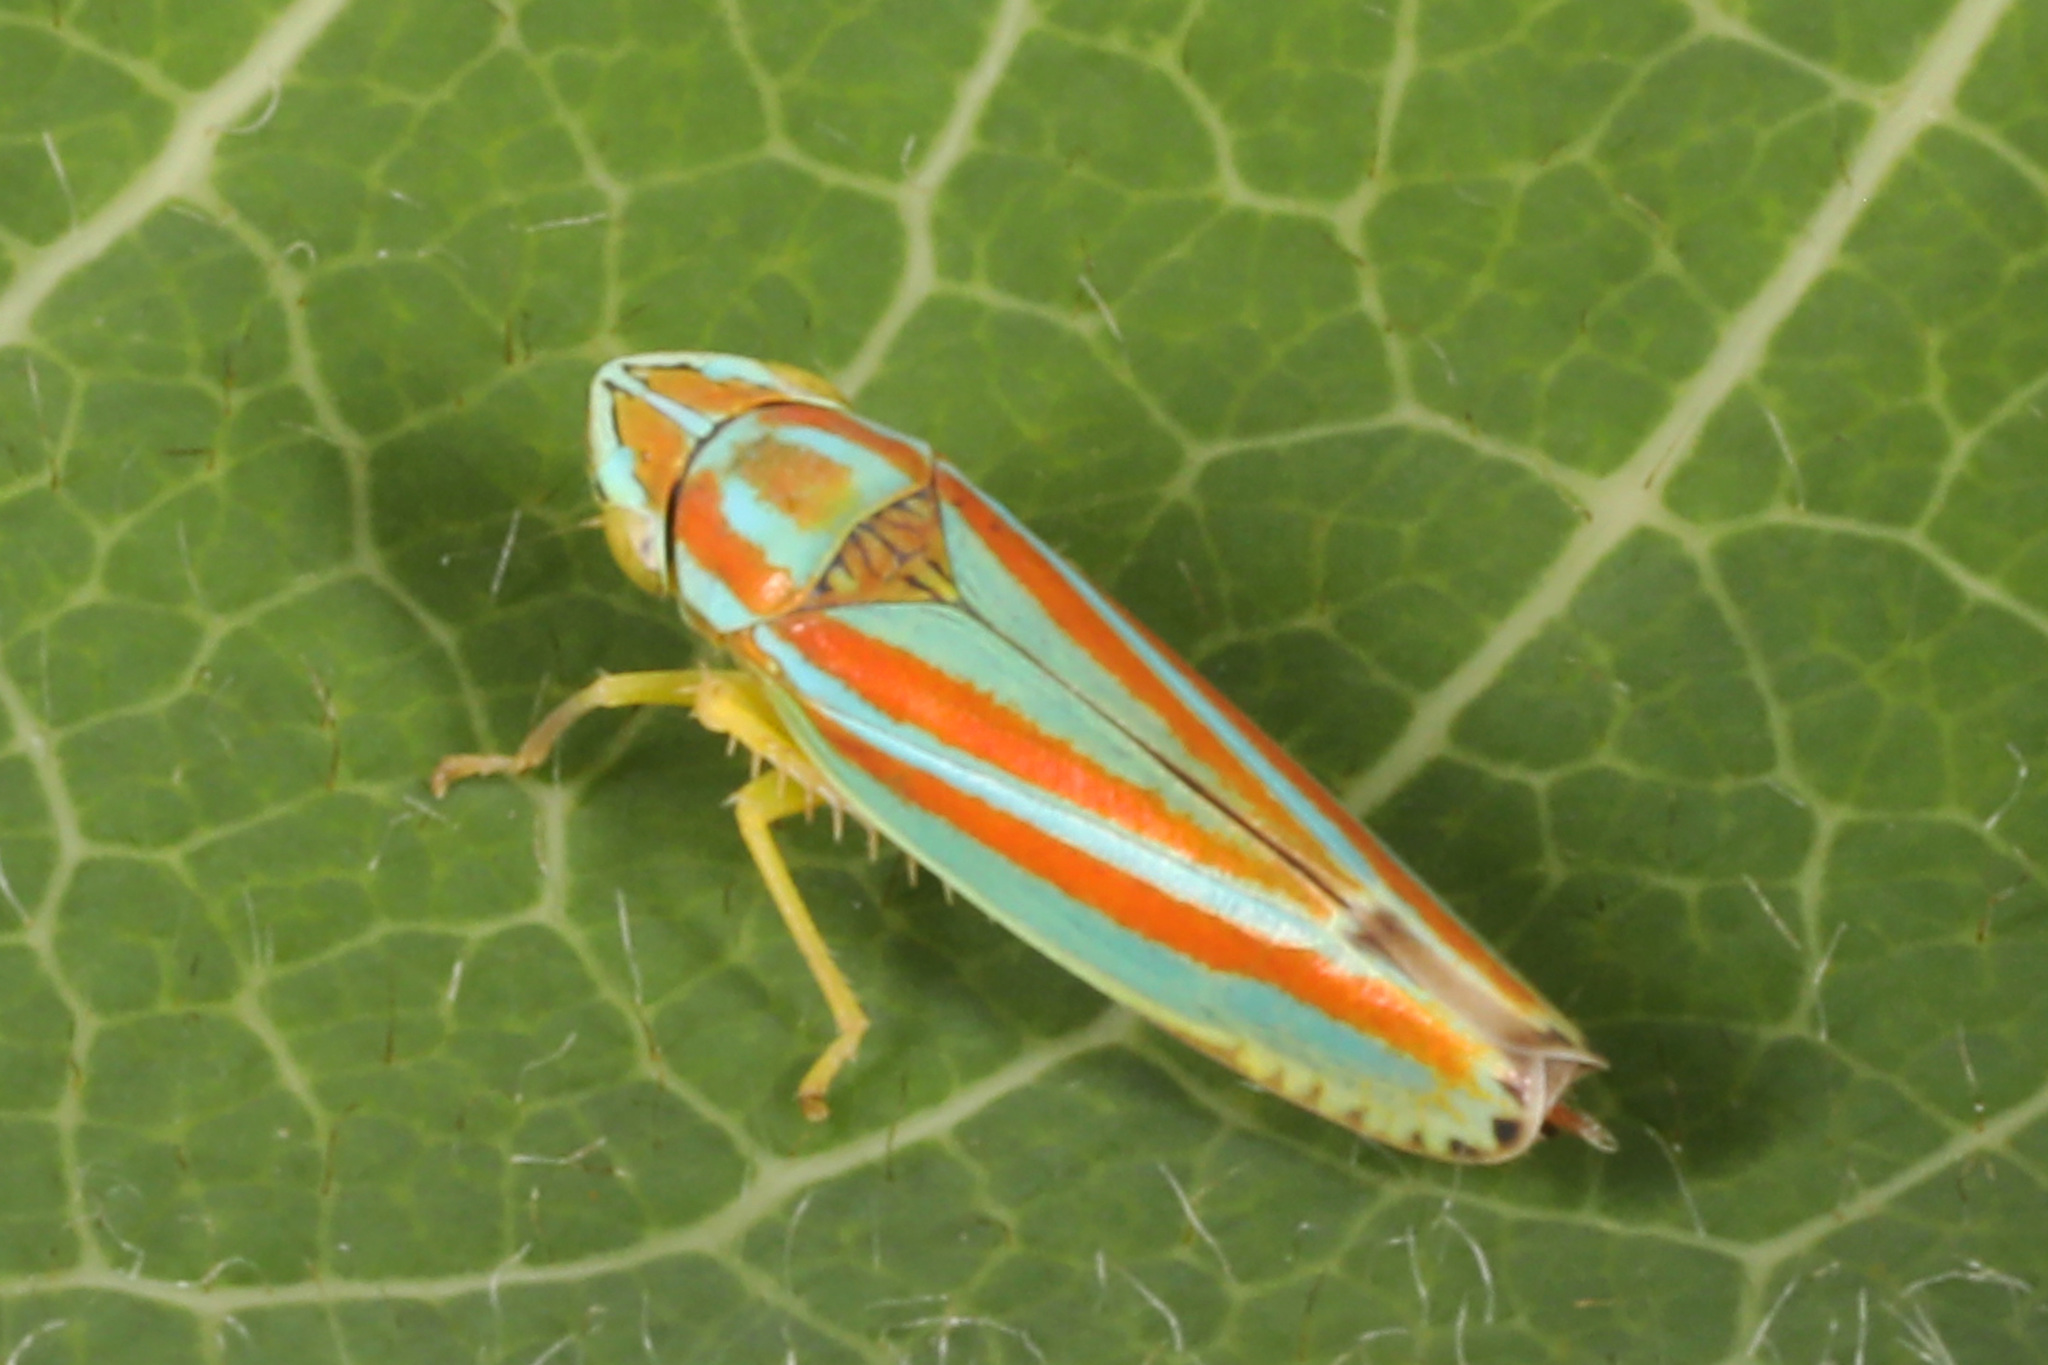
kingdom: Animalia
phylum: Arthropoda
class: Insecta
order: Hemiptera
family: Cicadellidae
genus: Graphocephala
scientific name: Graphocephala versuta
